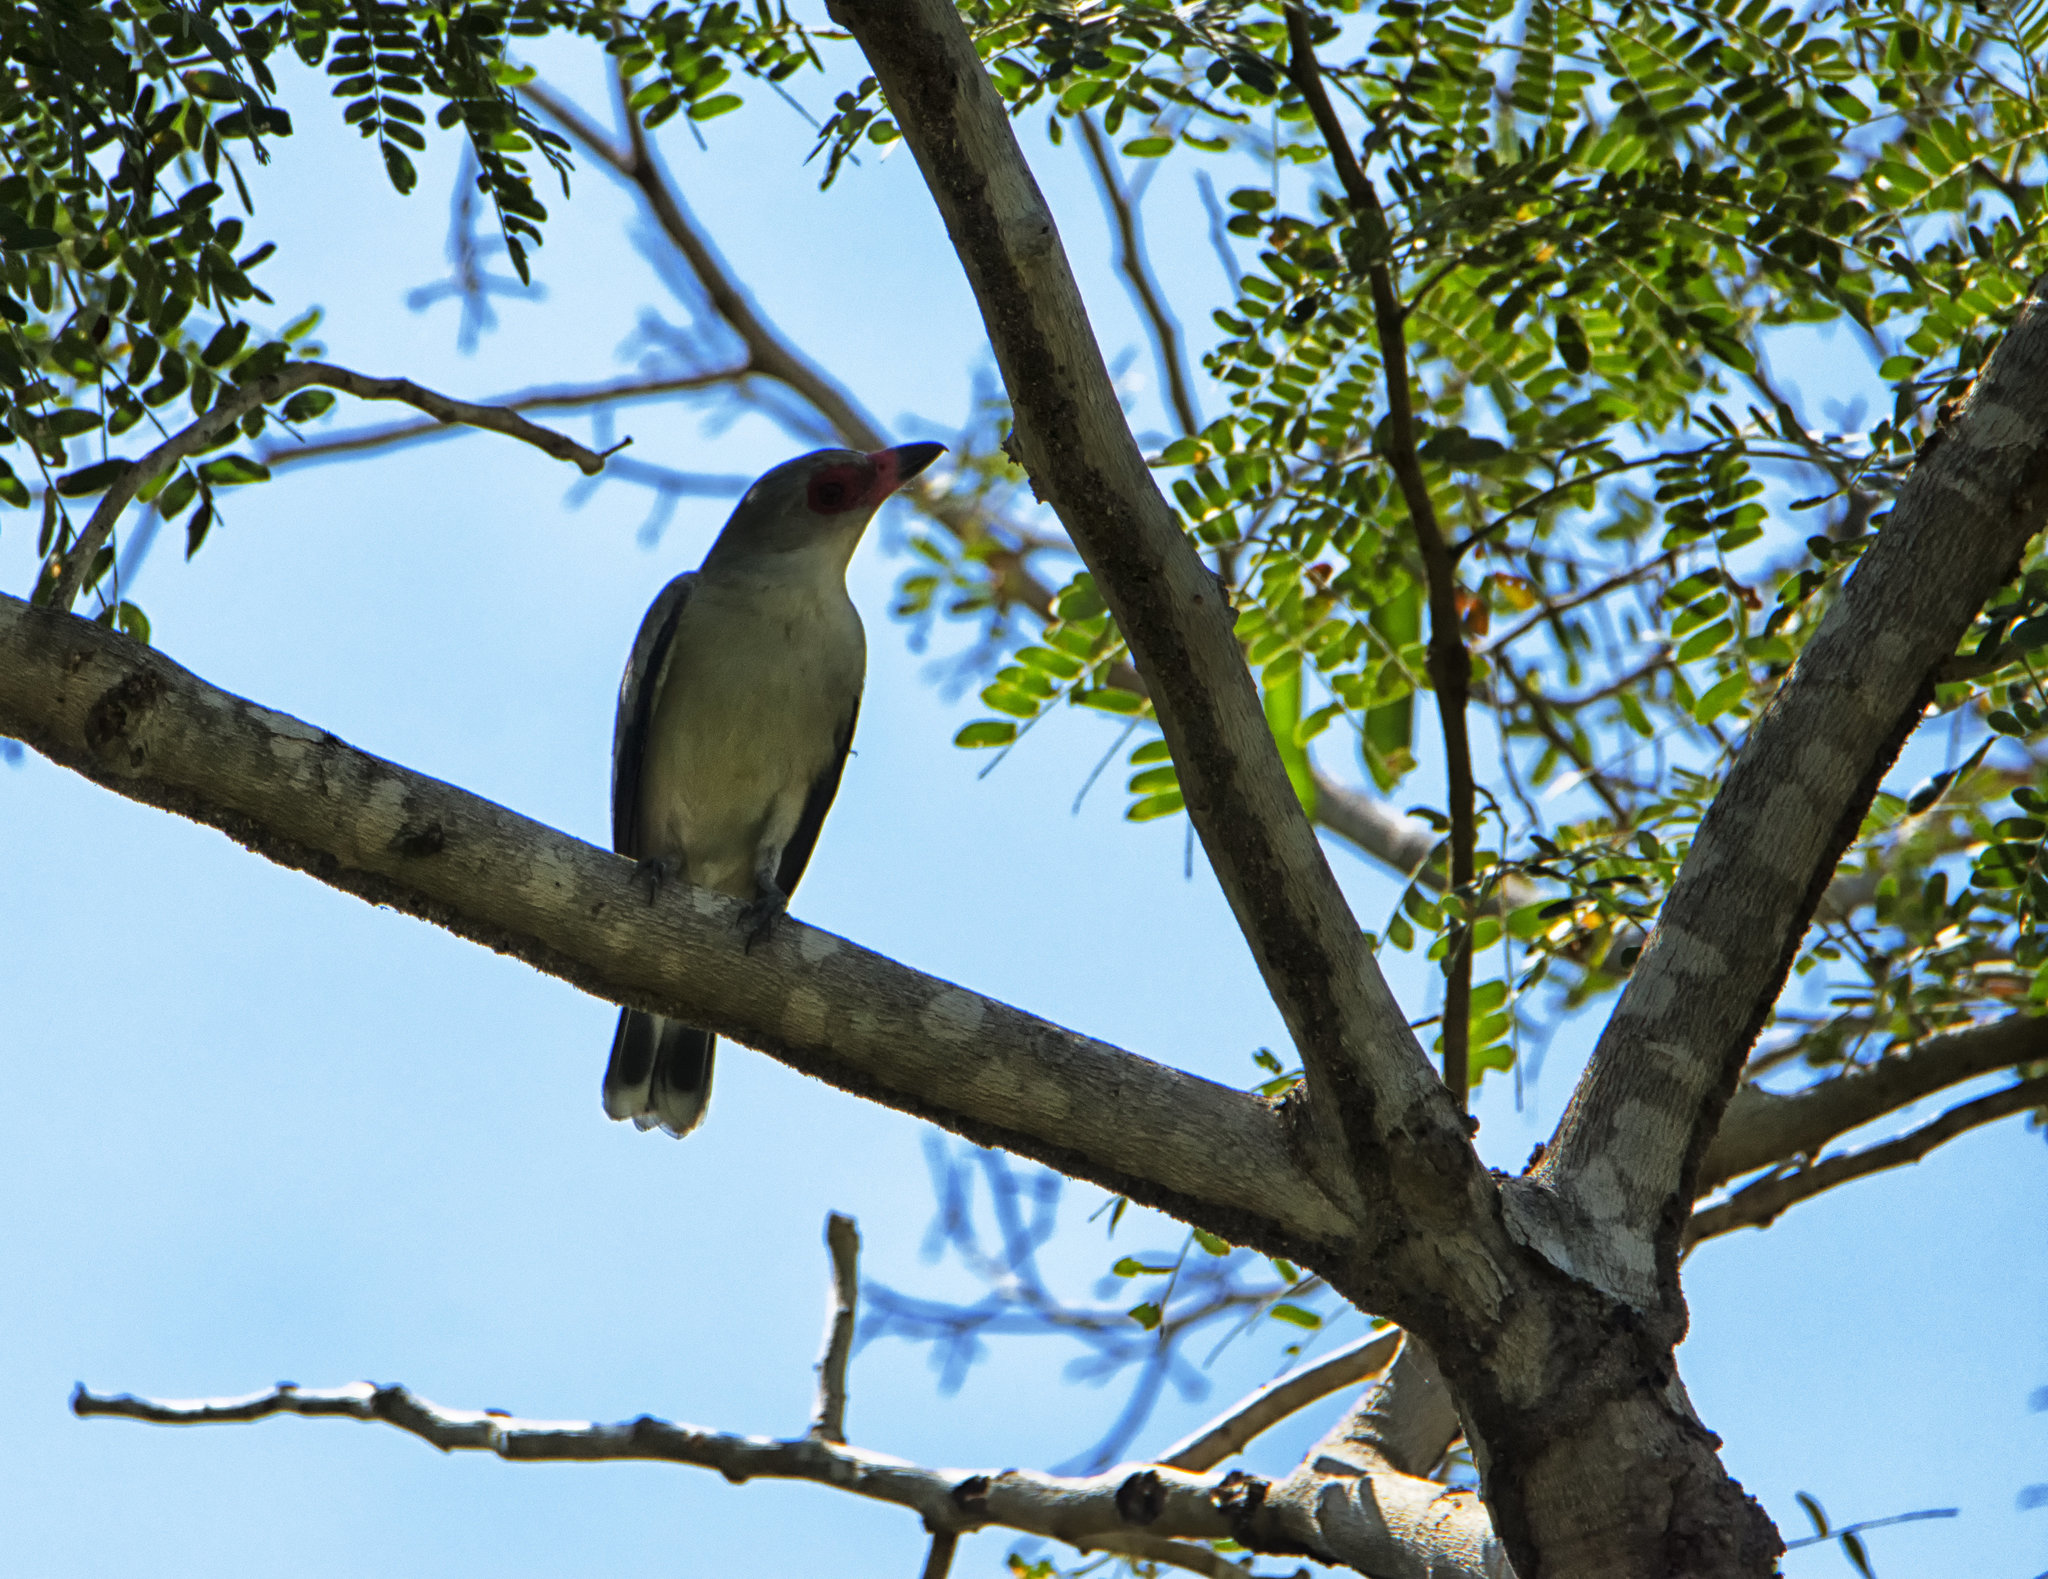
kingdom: Animalia
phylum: Chordata
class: Aves
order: Passeriformes
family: Cotingidae
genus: Tityra
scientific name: Tityra semifasciata
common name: Masked tityra
